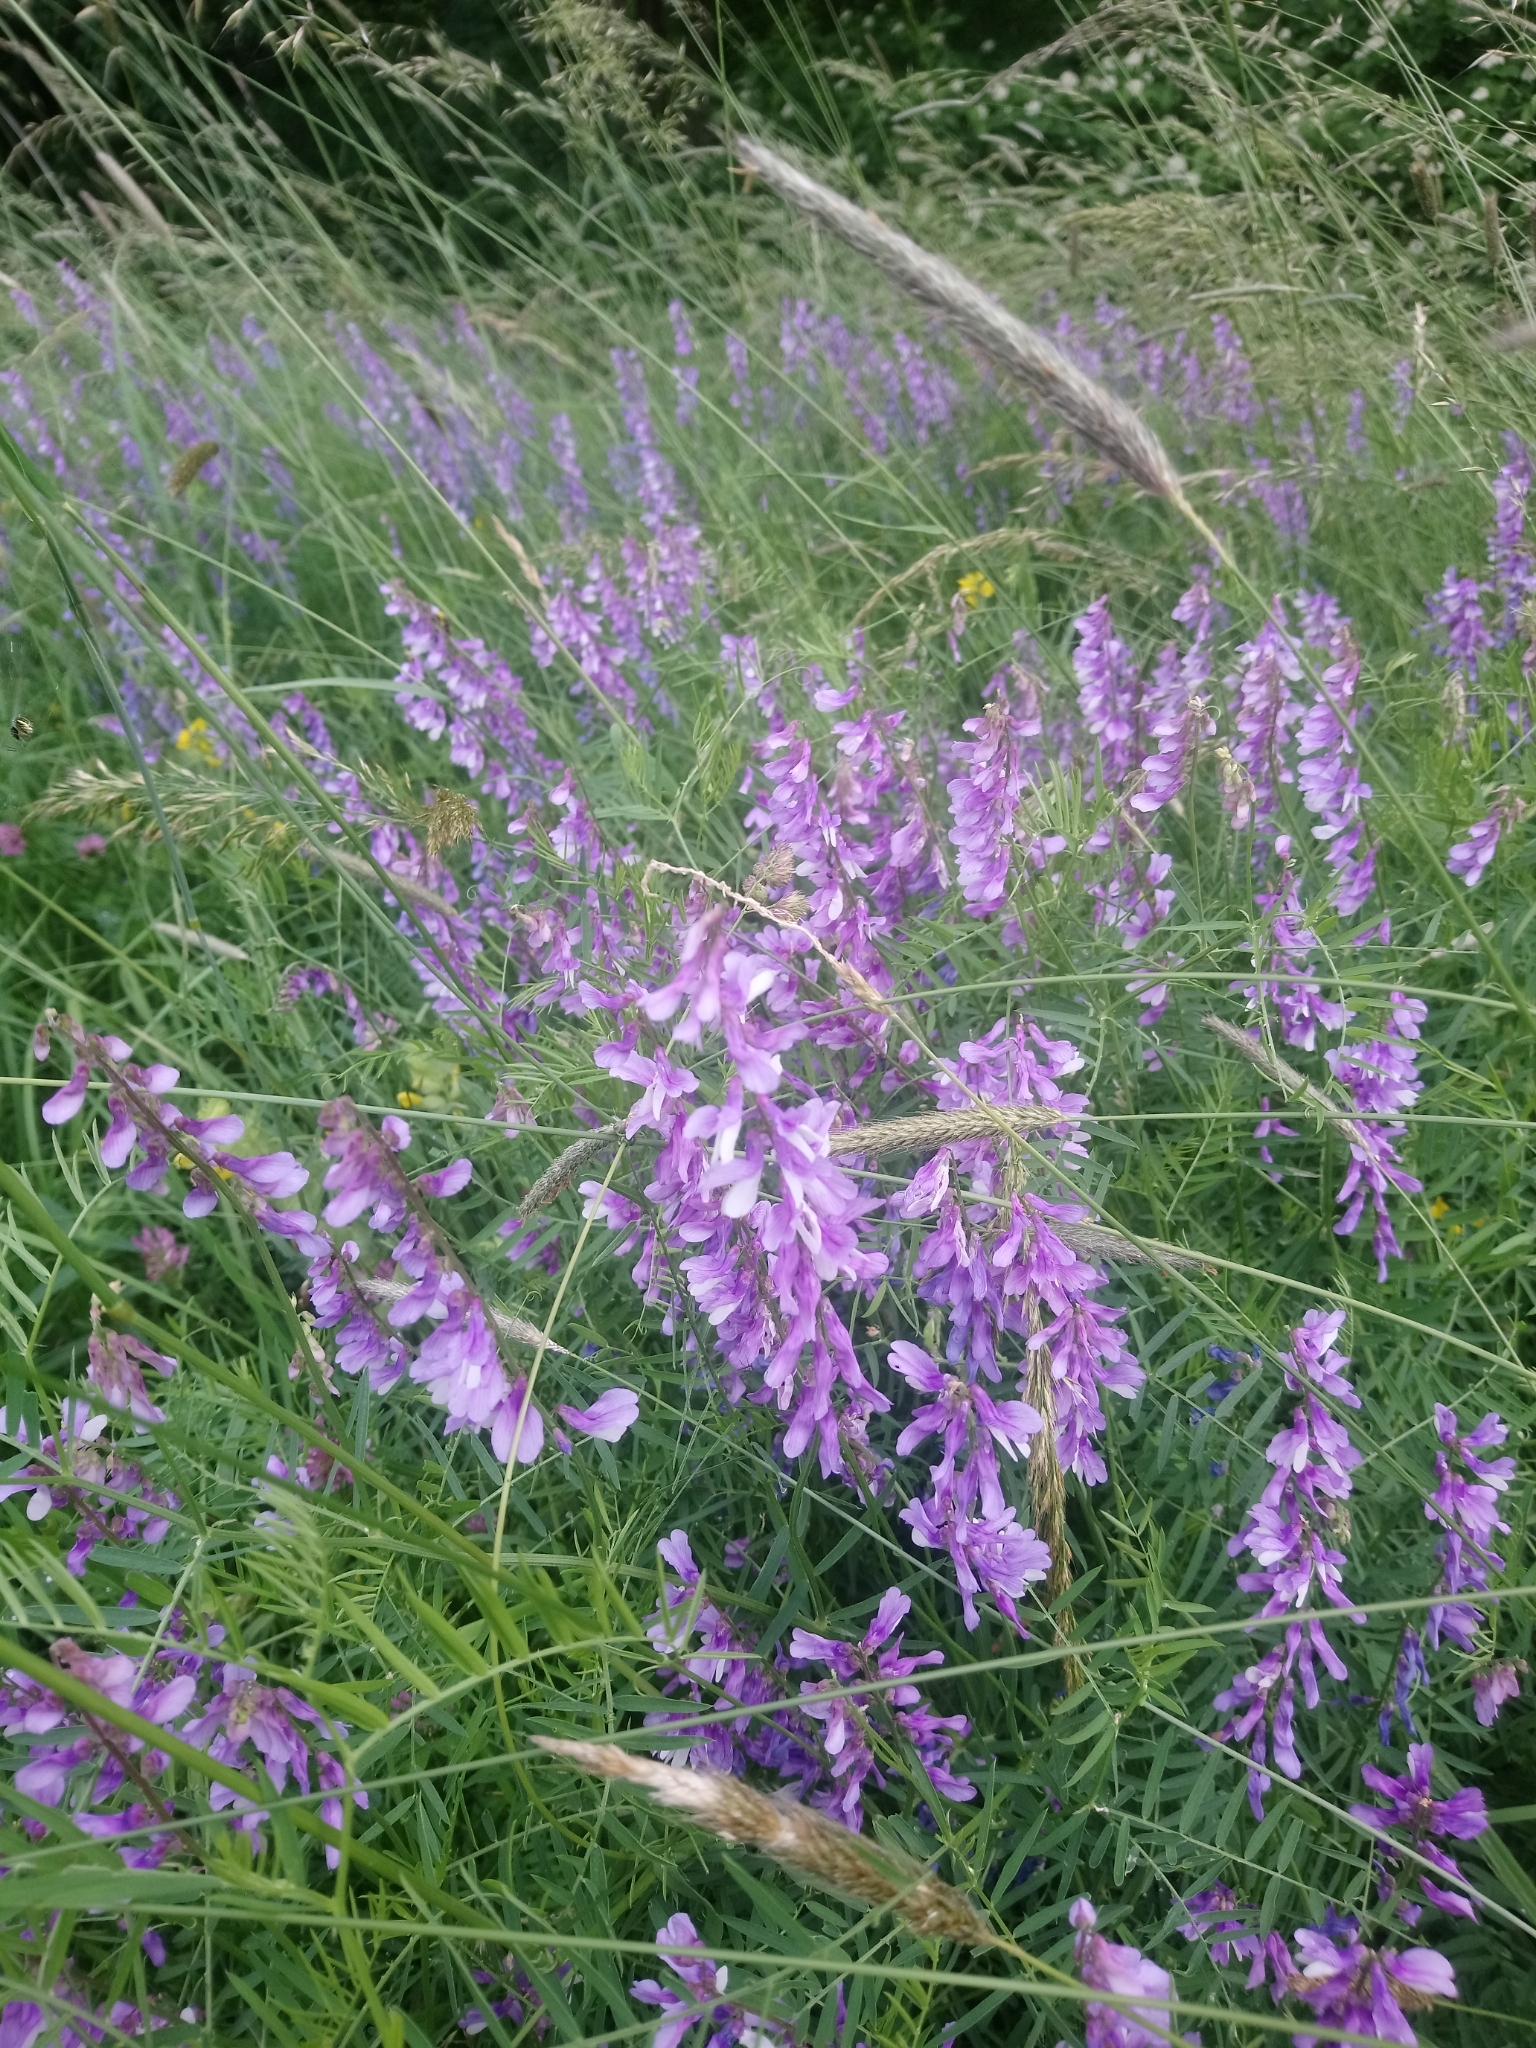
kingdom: Plantae
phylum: Tracheophyta
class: Magnoliopsida
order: Fabales
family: Fabaceae
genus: Vicia
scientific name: Vicia tenuifolia
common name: Fine-leaved vetch
